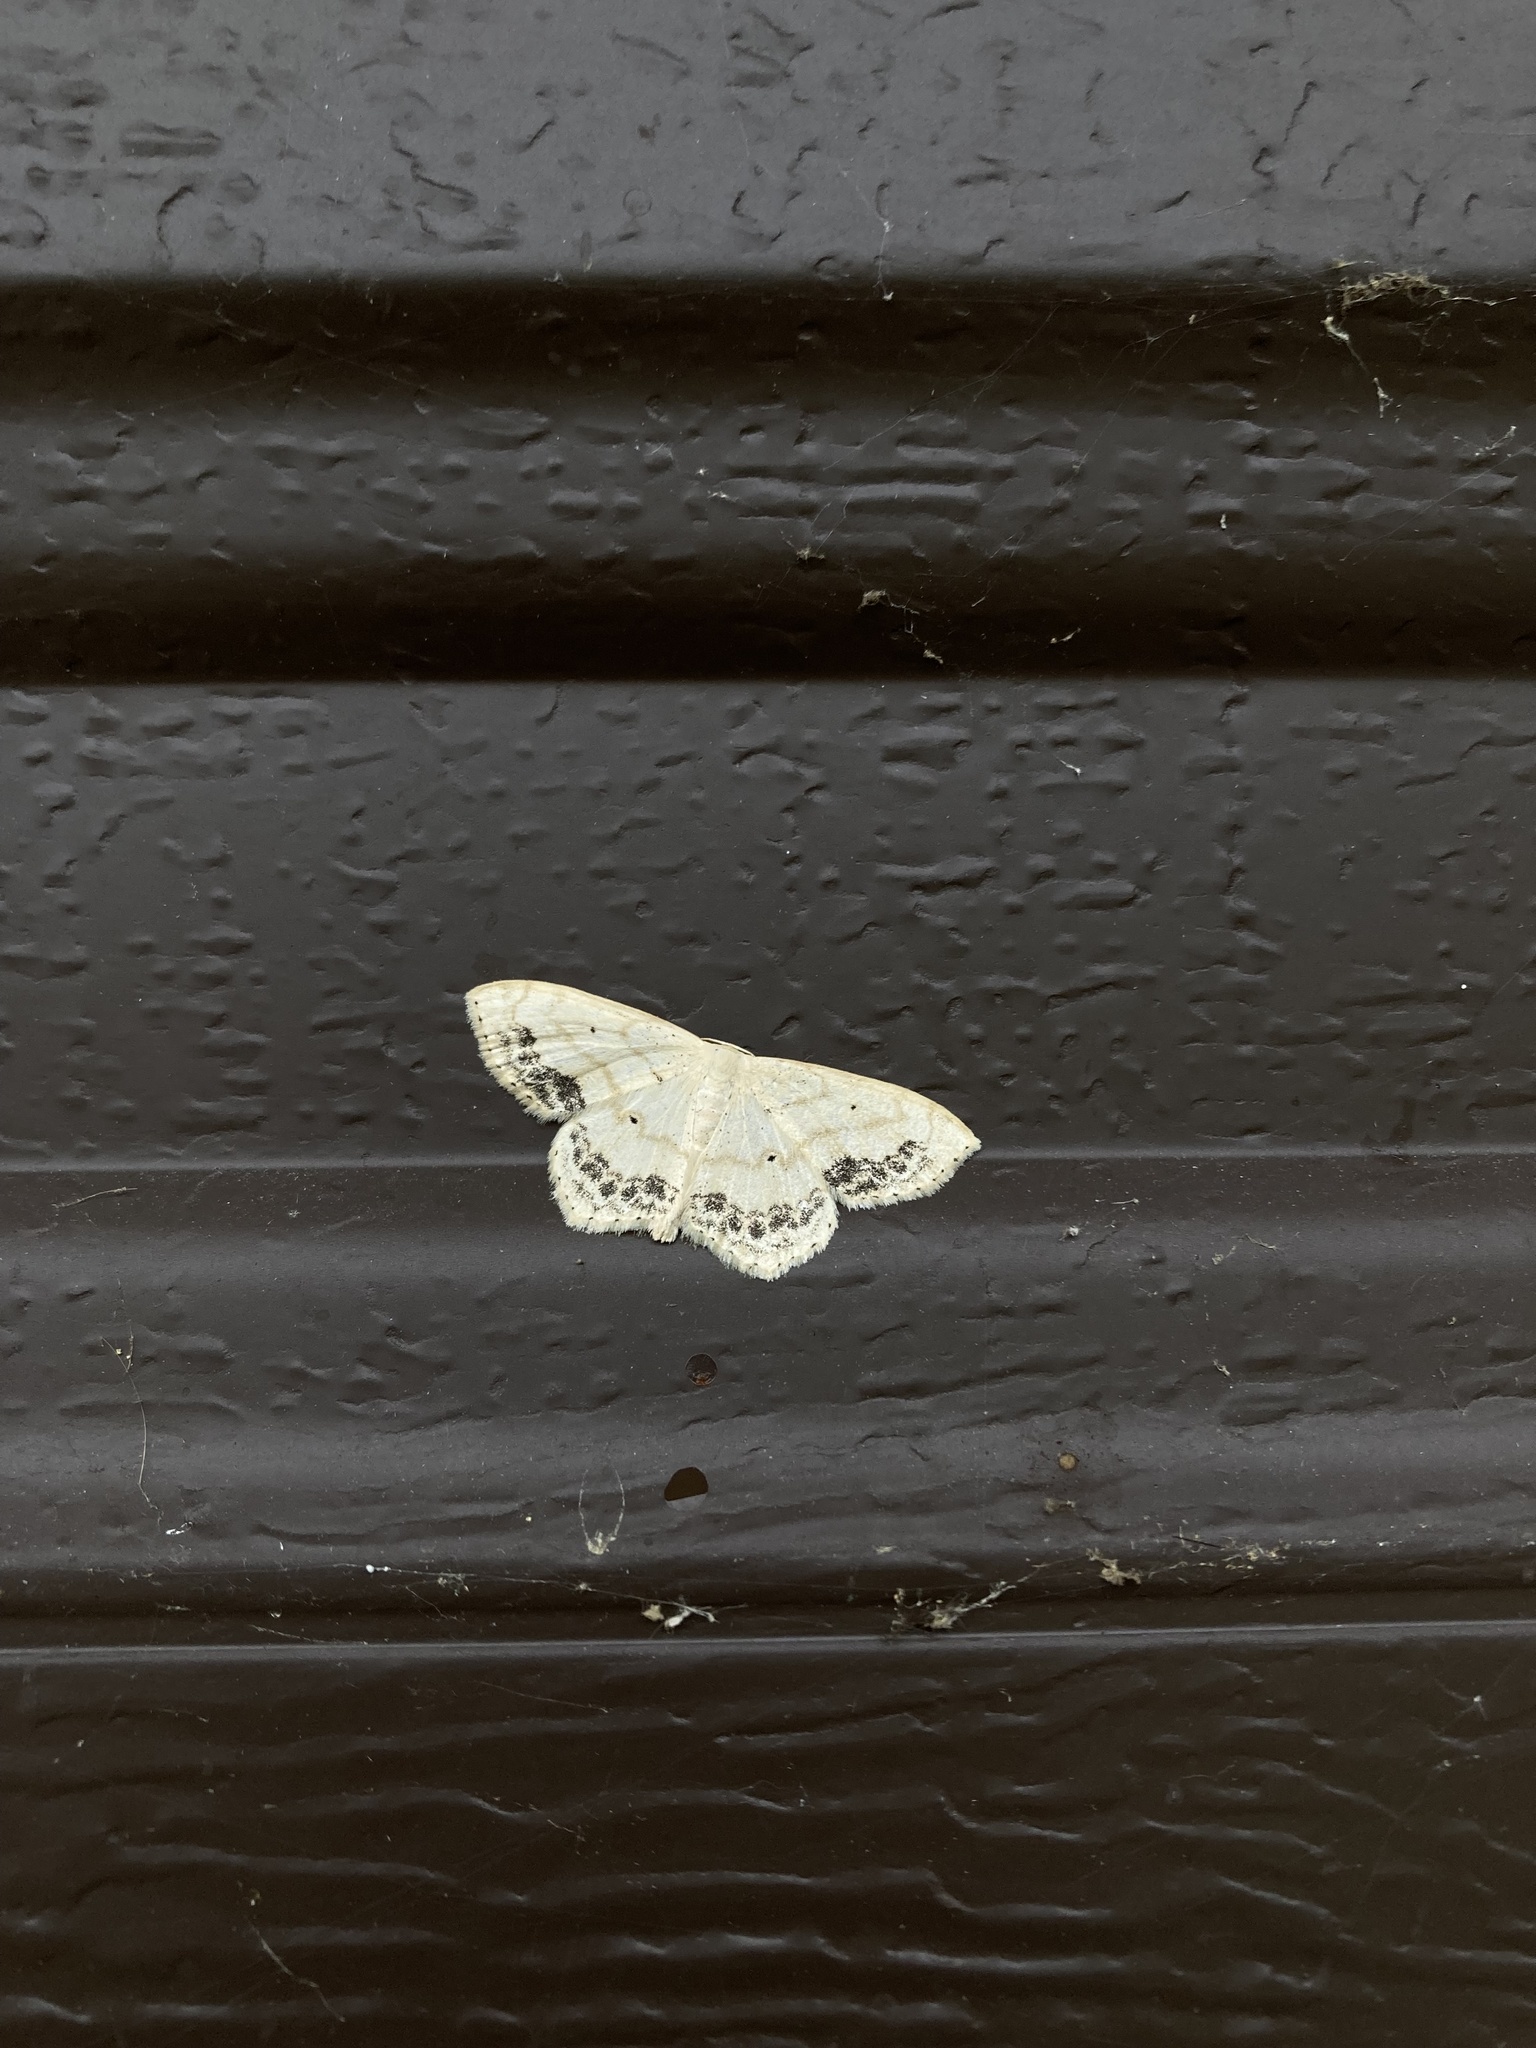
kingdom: Animalia
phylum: Arthropoda
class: Insecta
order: Lepidoptera
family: Geometridae
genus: Scopula
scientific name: Scopula limboundata
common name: Large lace border
